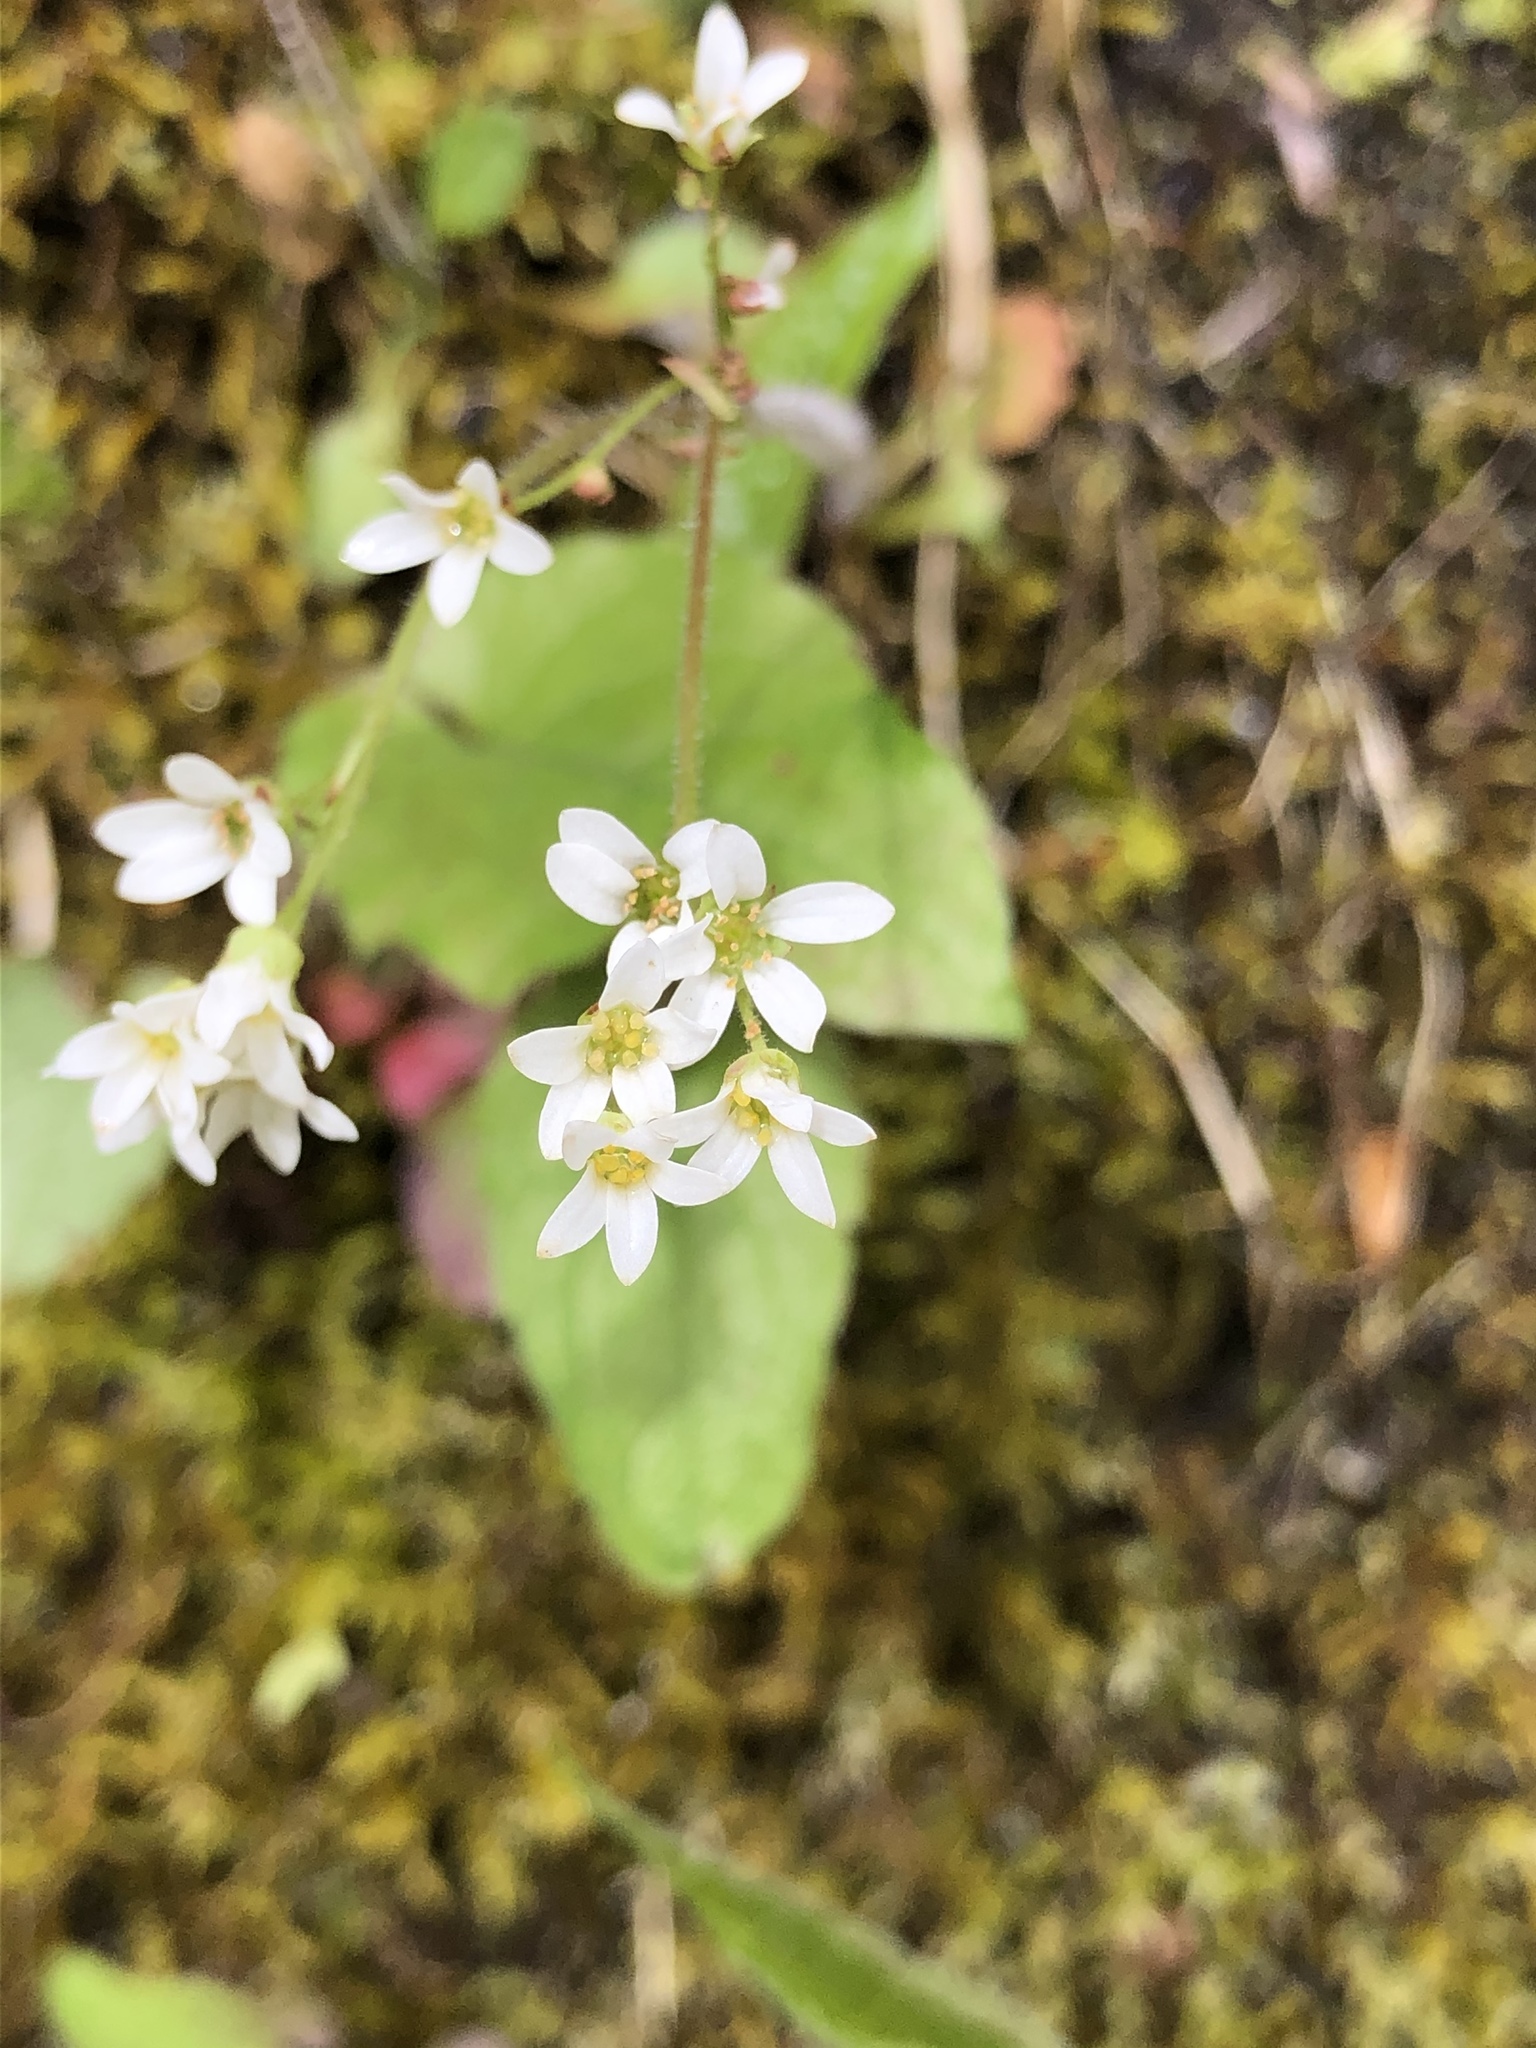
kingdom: Plantae
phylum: Tracheophyta
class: Magnoliopsida
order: Saxifragales
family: Saxifragaceae
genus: Micranthes
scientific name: Micranthes virginiensis
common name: Early saxifrage
